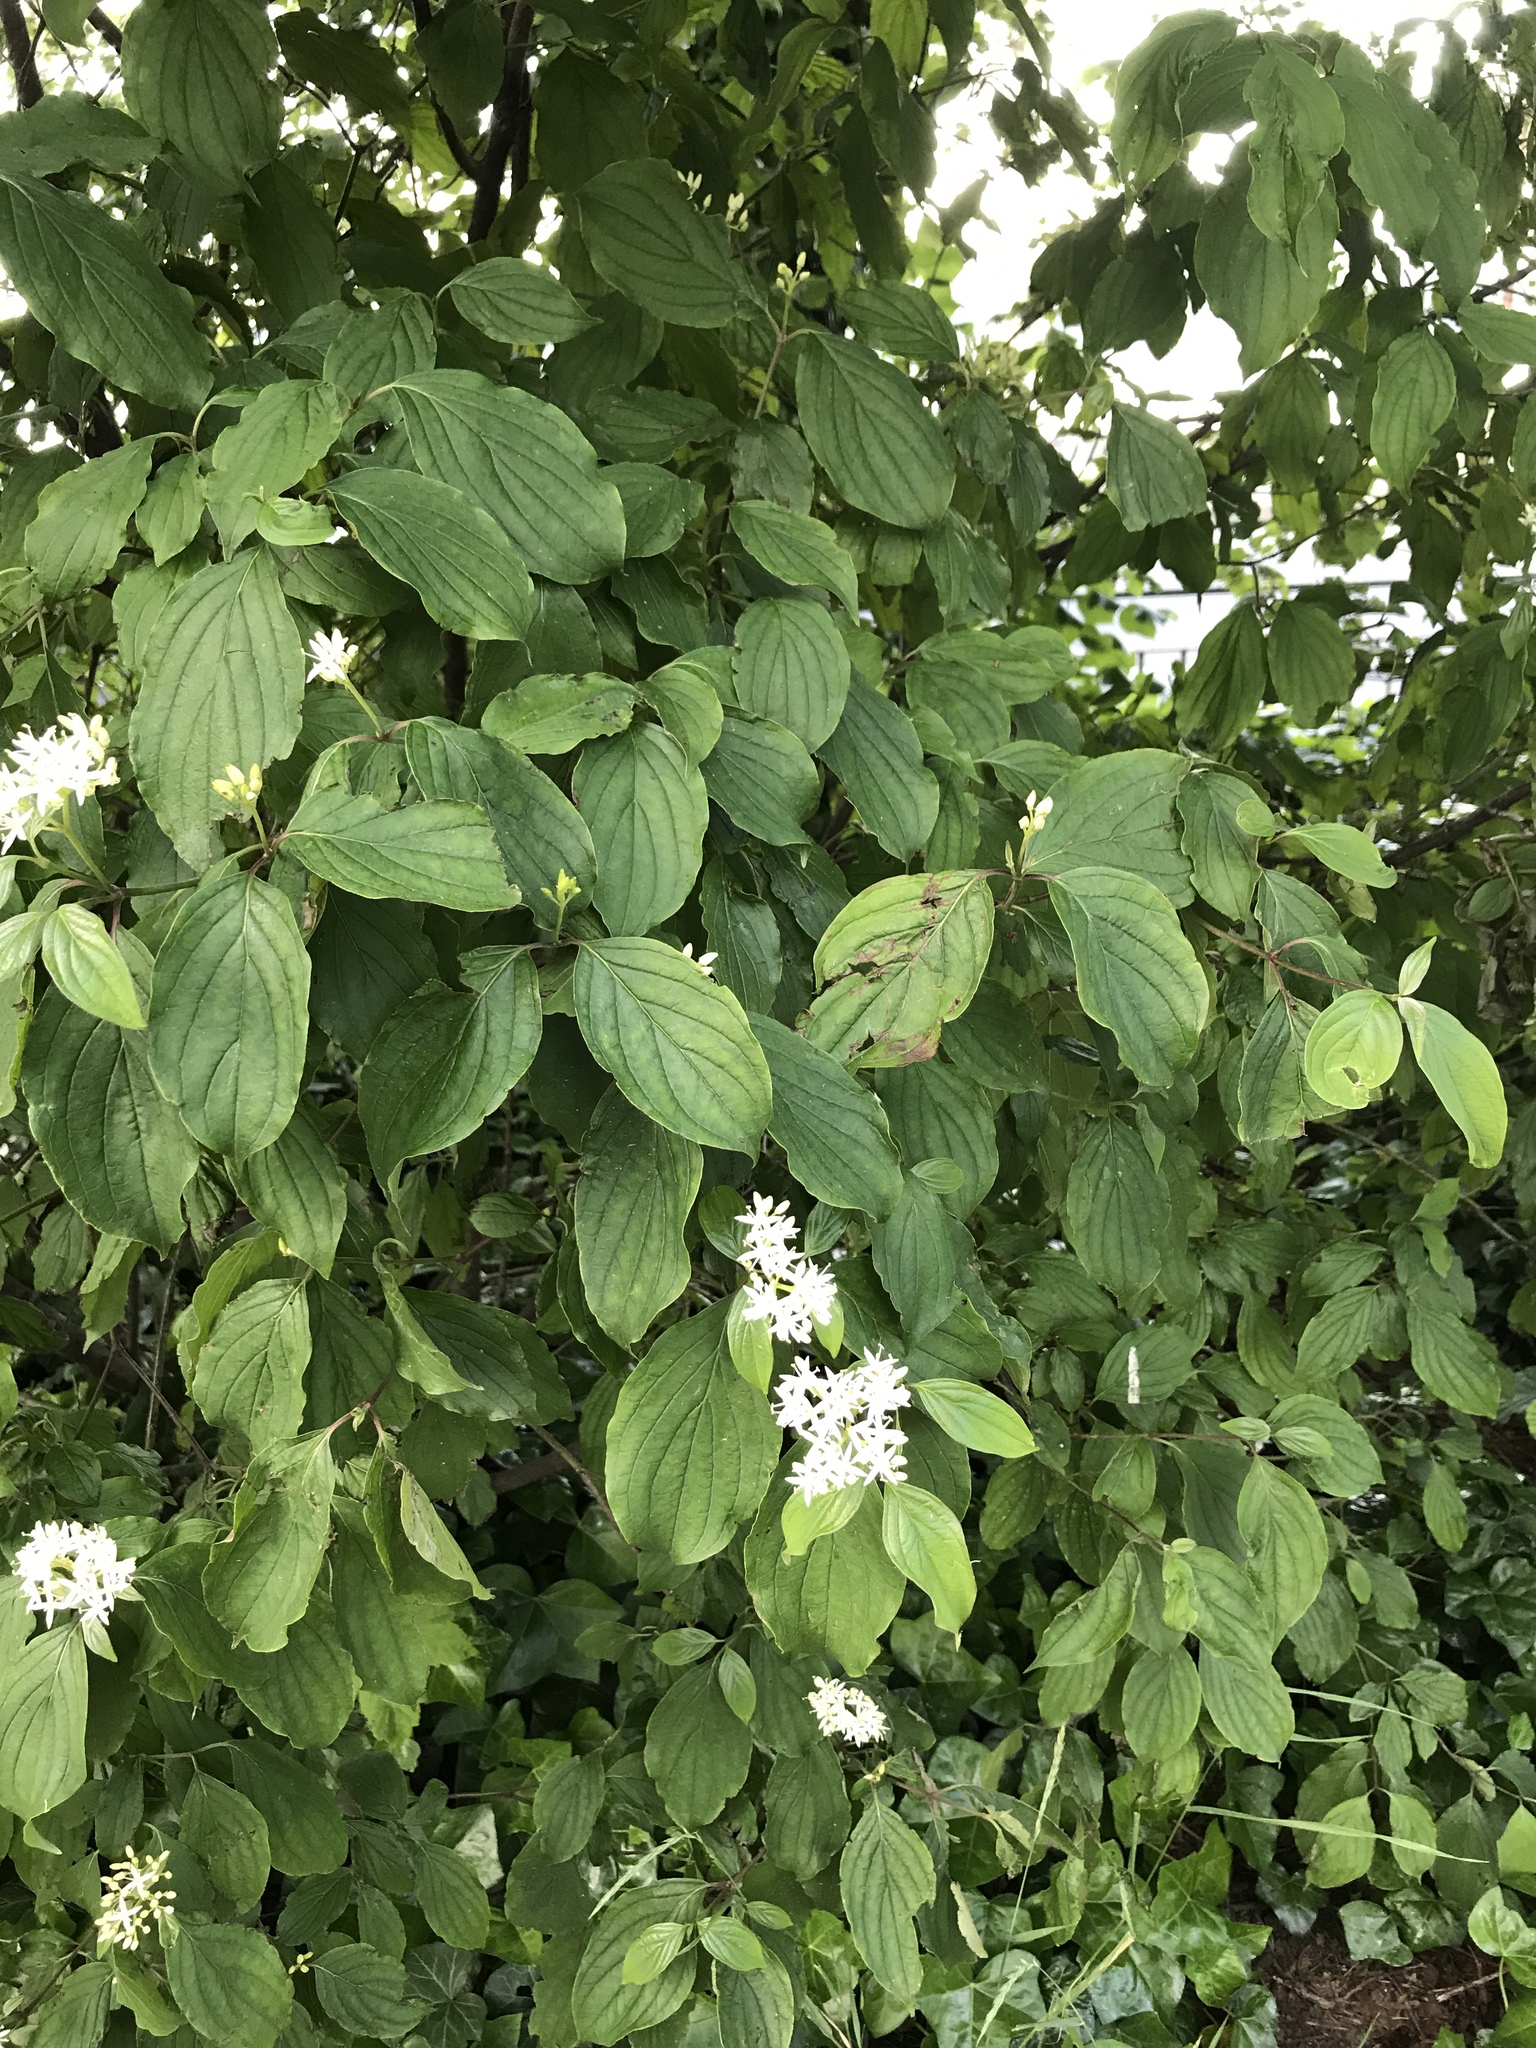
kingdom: Plantae
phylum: Tracheophyta
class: Magnoliopsida
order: Cornales
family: Cornaceae
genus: Cornus
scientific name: Cornus sanguinea
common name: Dogwood
